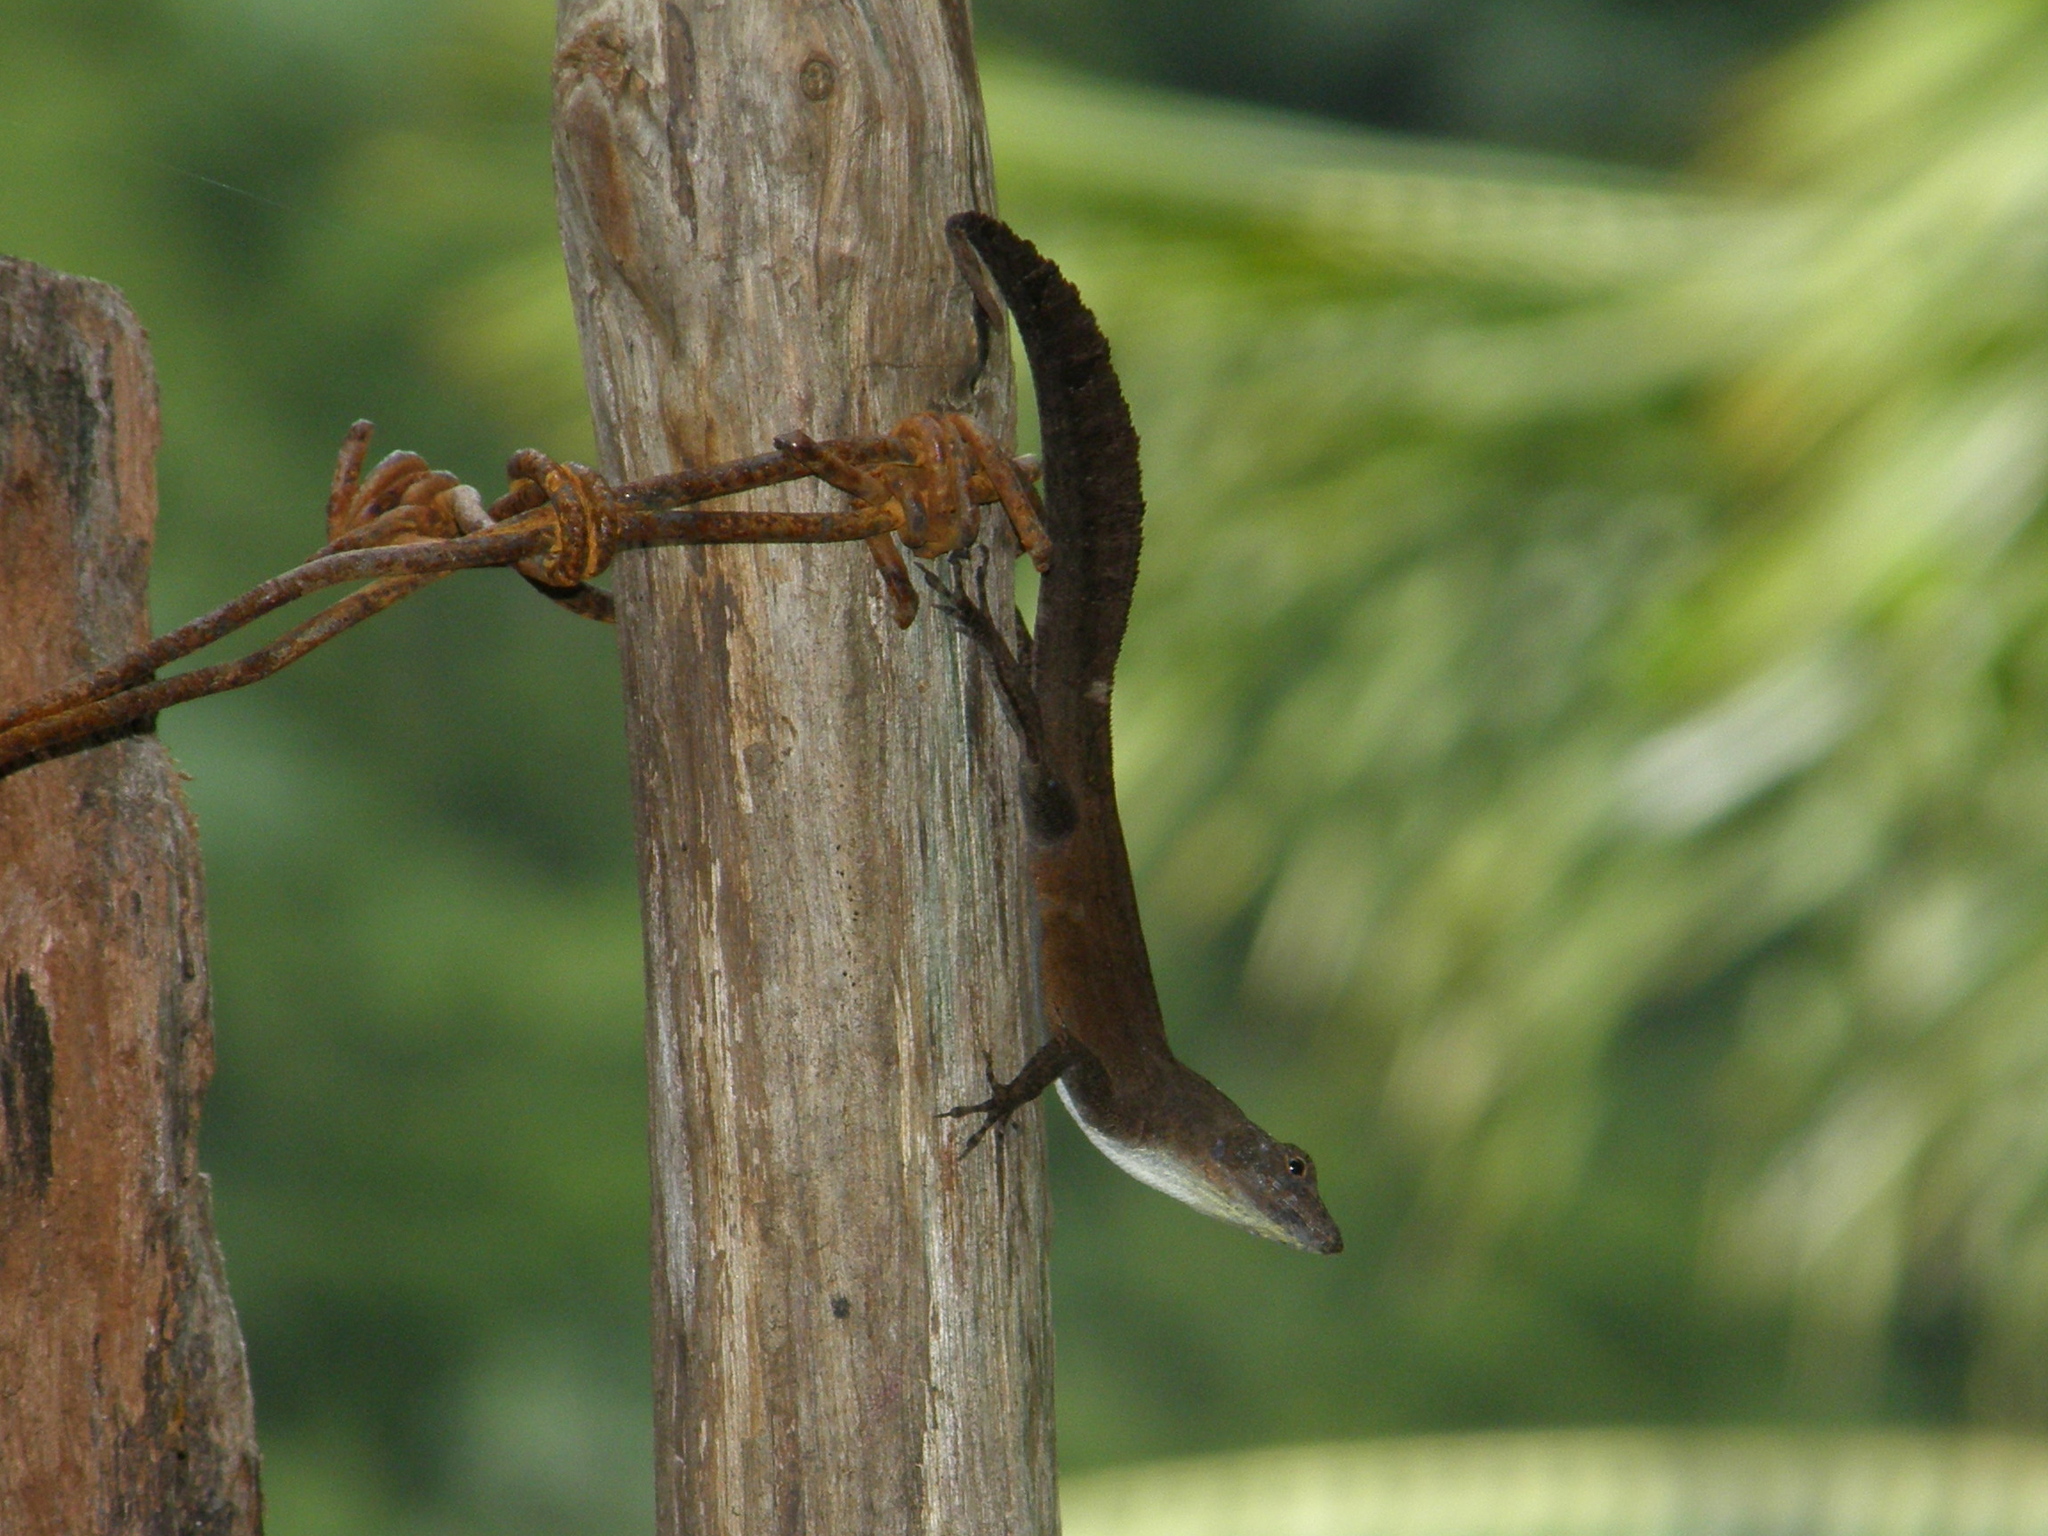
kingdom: Animalia
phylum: Chordata
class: Squamata
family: Dactyloidae
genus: Anolis
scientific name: Anolis homolechis
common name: Habana anole
